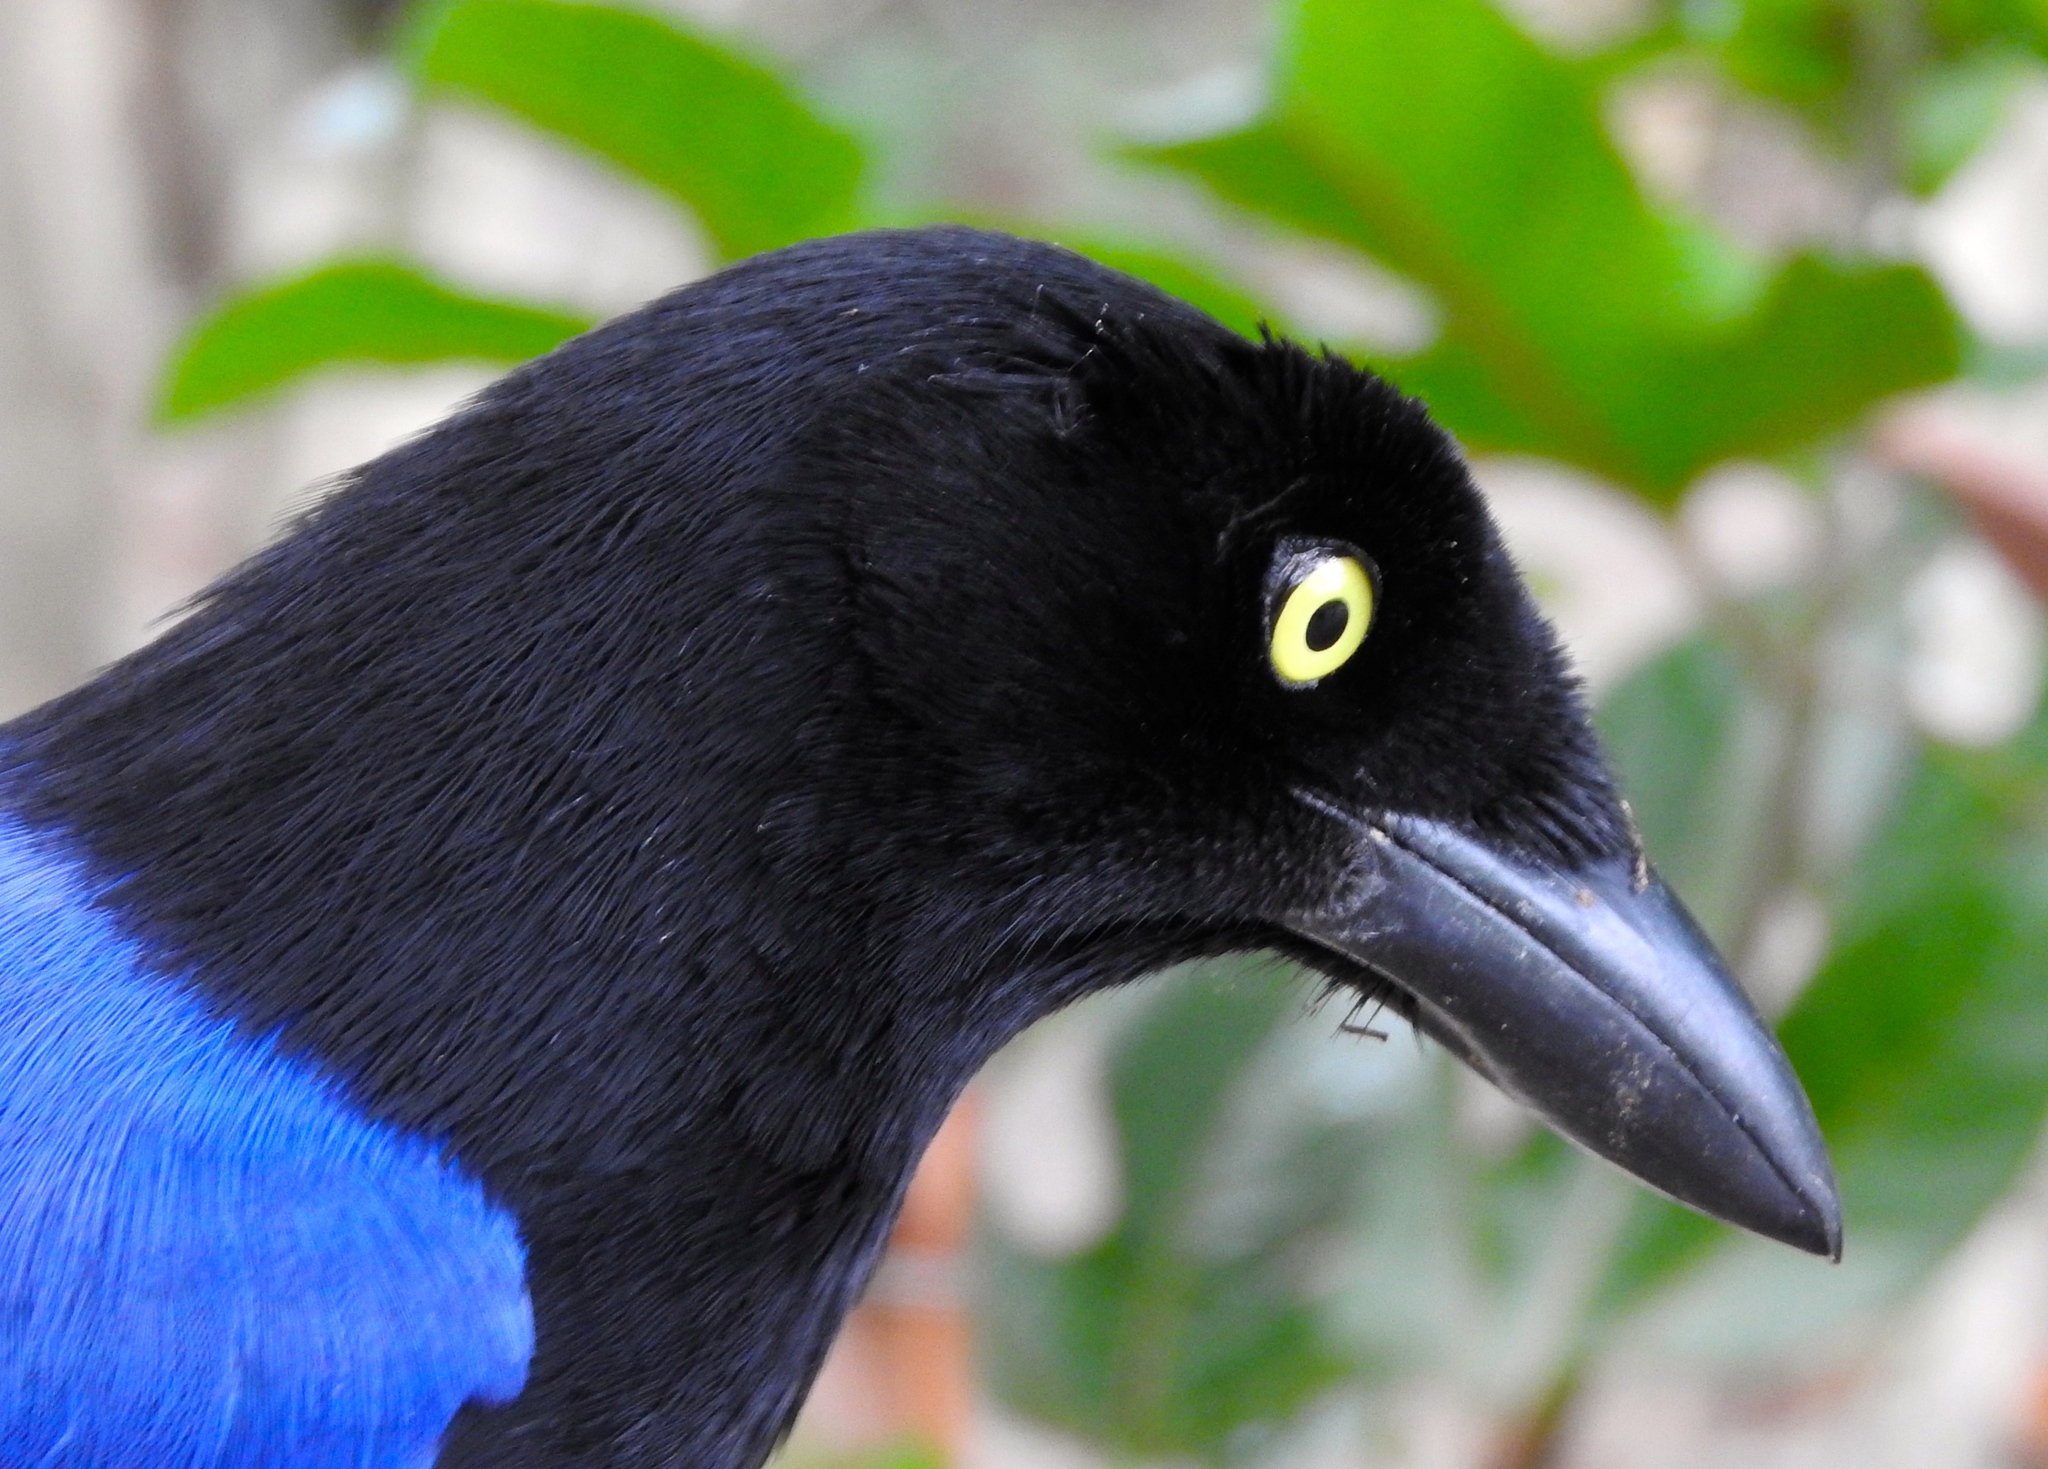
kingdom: Animalia
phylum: Chordata
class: Aves
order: Passeriformes
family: Corvidae
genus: Cyanocorax
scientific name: Cyanocorax beecheii
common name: Purplish-backed jay
